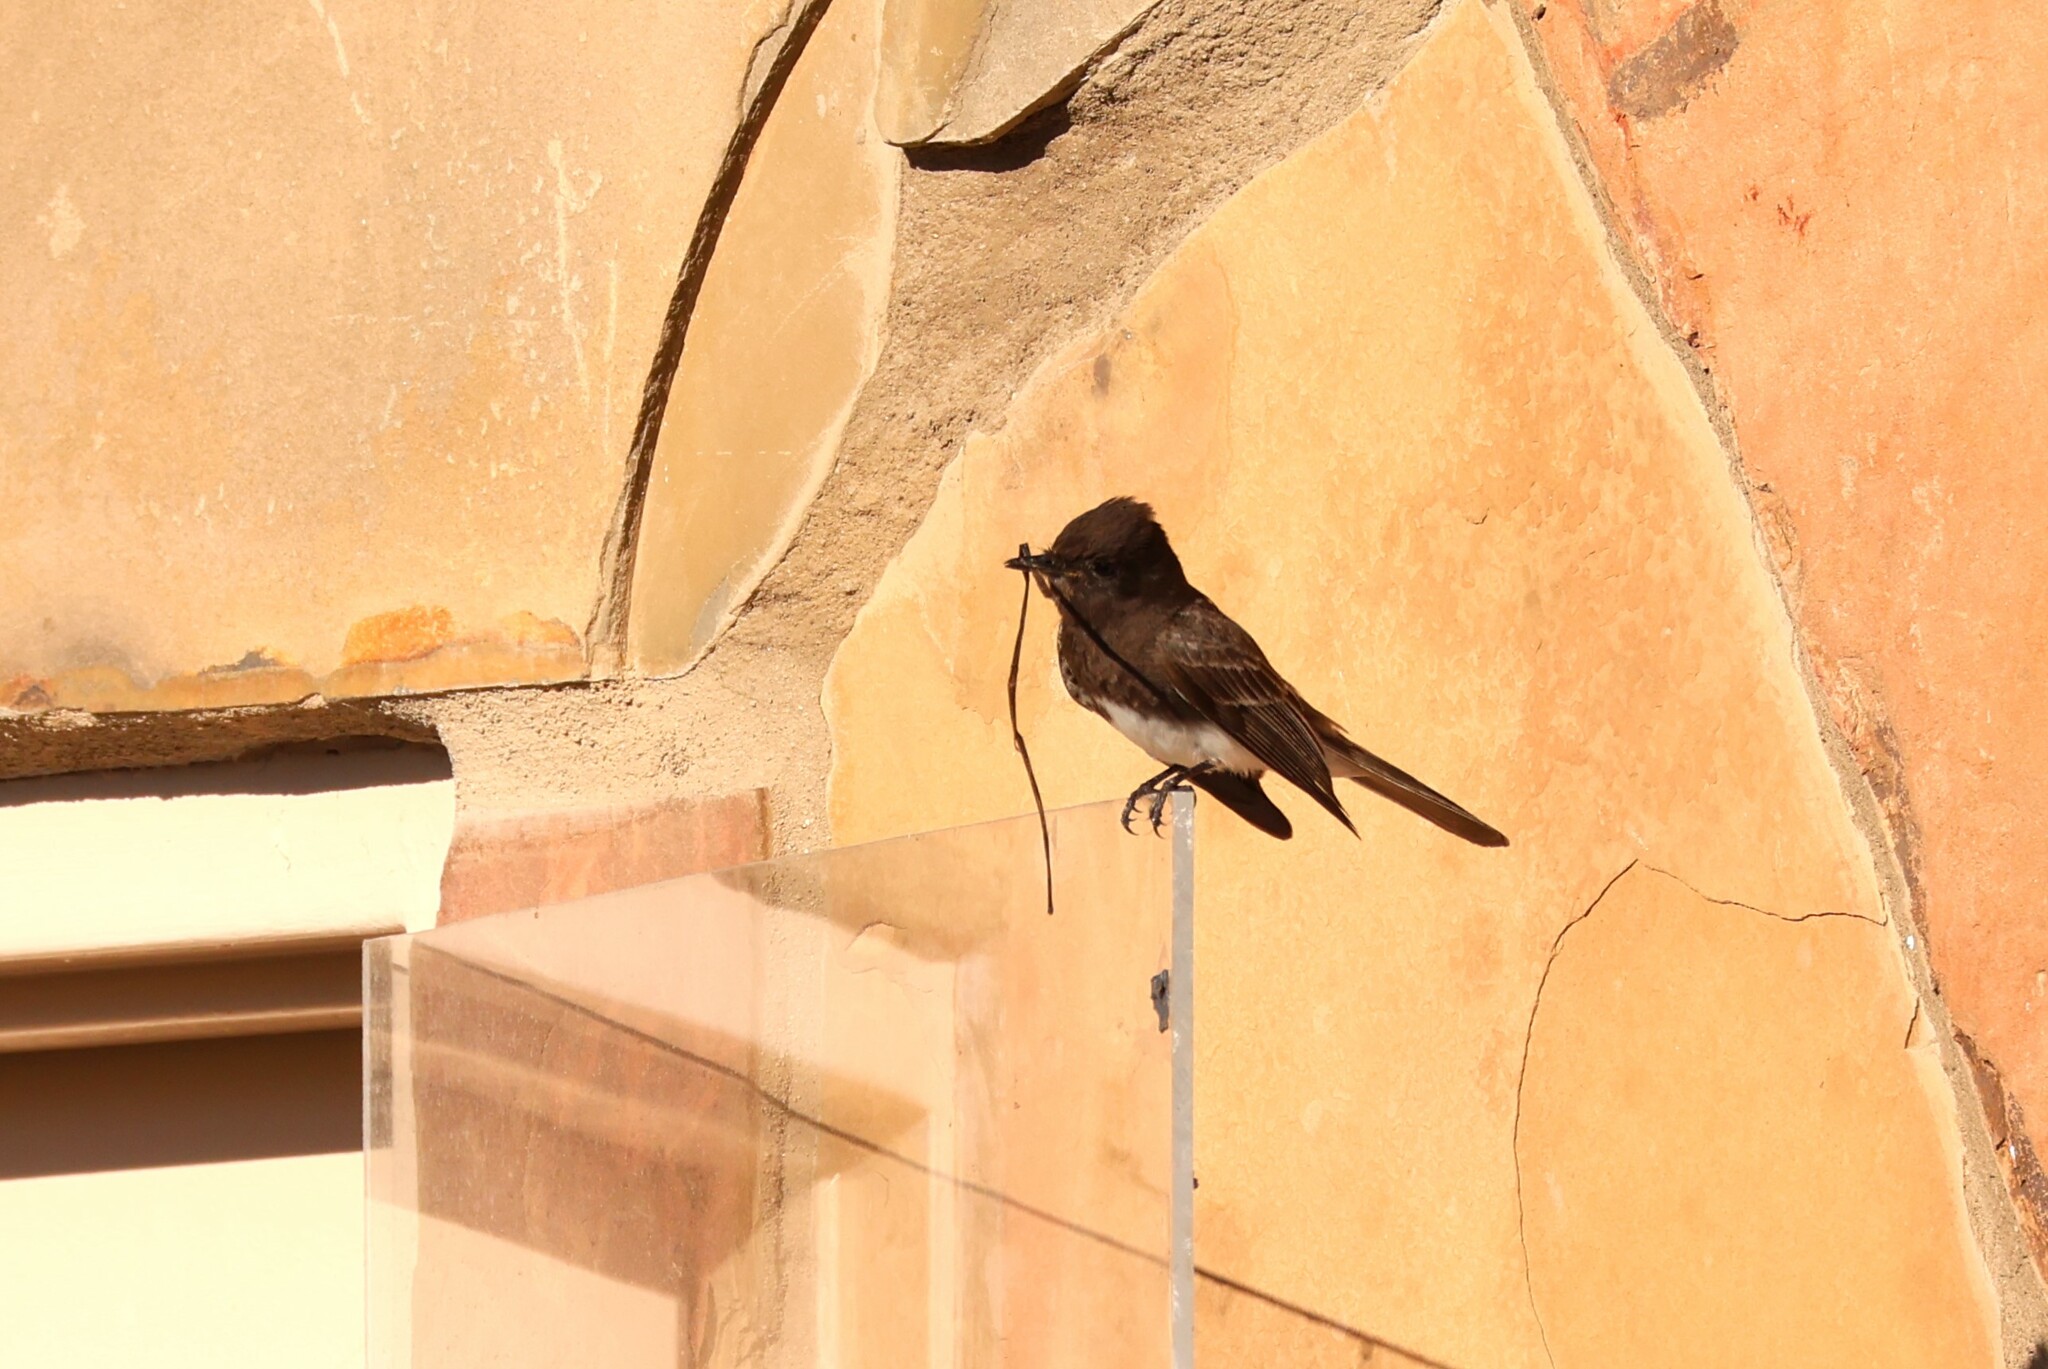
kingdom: Animalia
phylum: Chordata
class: Aves
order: Passeriformes
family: Tyrannidae
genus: Sayornis
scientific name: Sayornis nigricans
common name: Black phoebe
